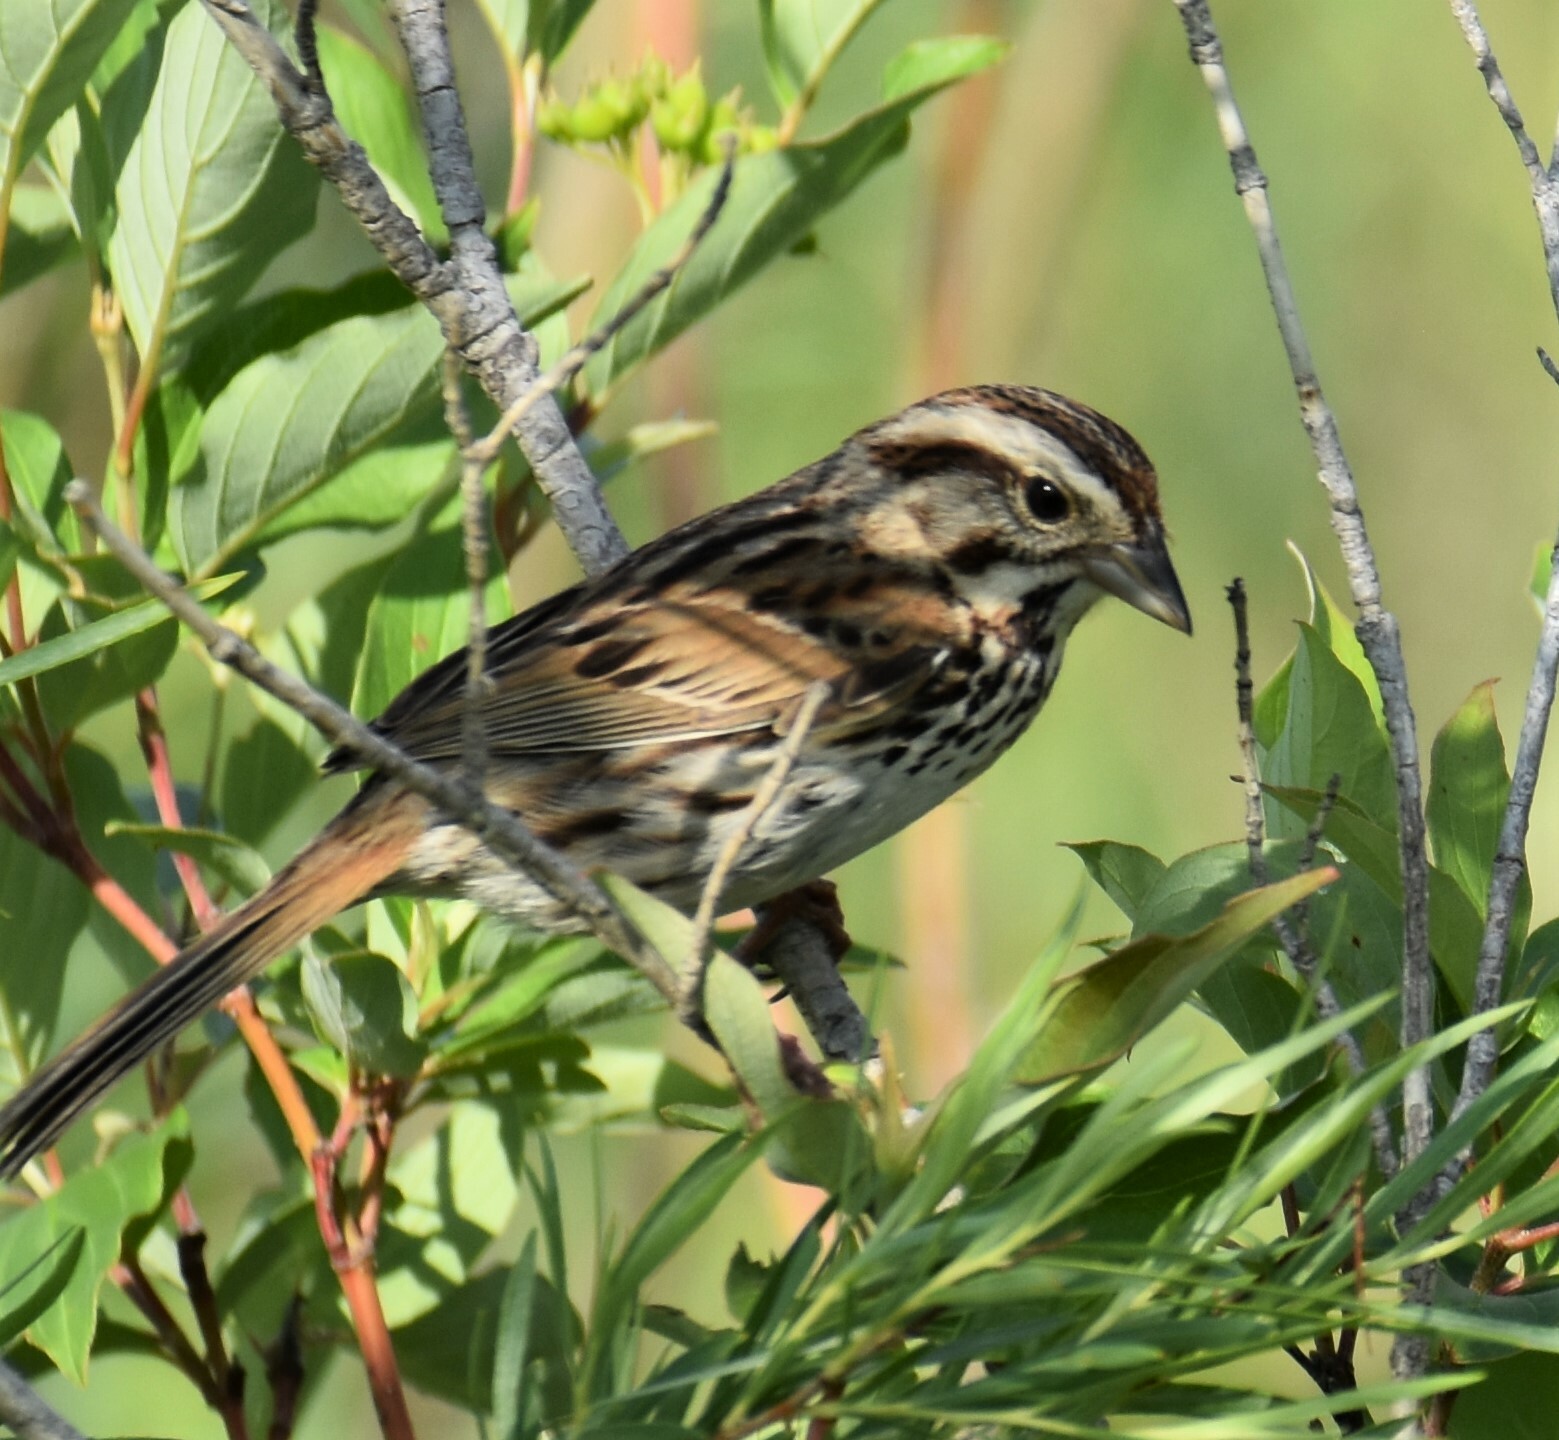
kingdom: Animalia
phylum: Chordata
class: Aves
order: Passeriformes
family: Passerellidae
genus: Melospiza
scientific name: Melospiza melodia
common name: Song sparrow
